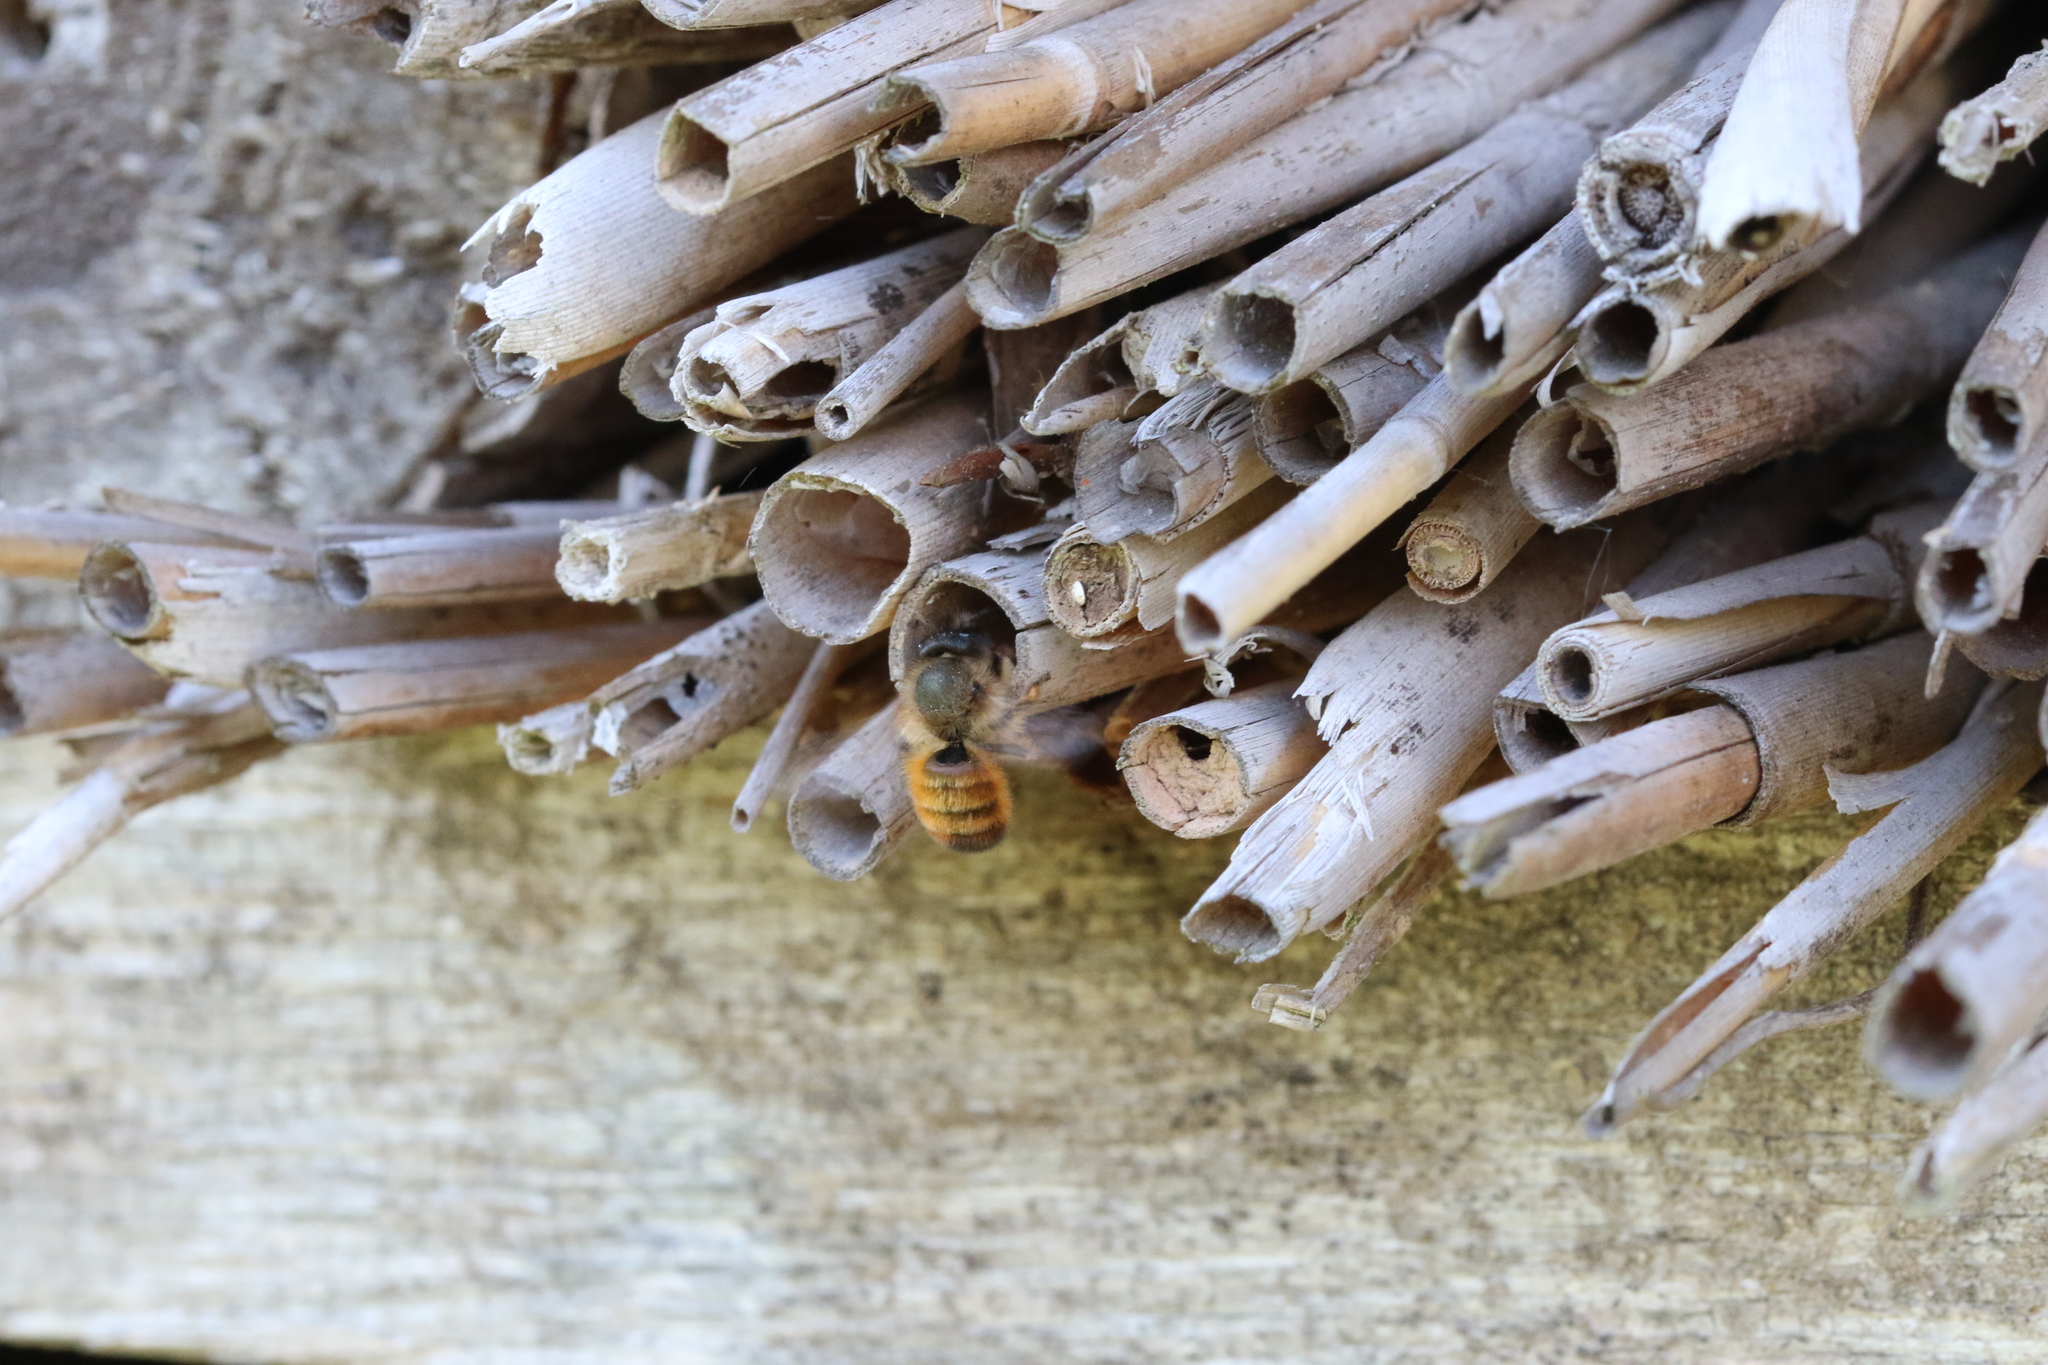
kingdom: Animalia
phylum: Arthropoda
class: Insecta
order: Hymenoptera
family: Megachilidae
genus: Osmia
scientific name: Osmia bicornis
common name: Red mason bee
